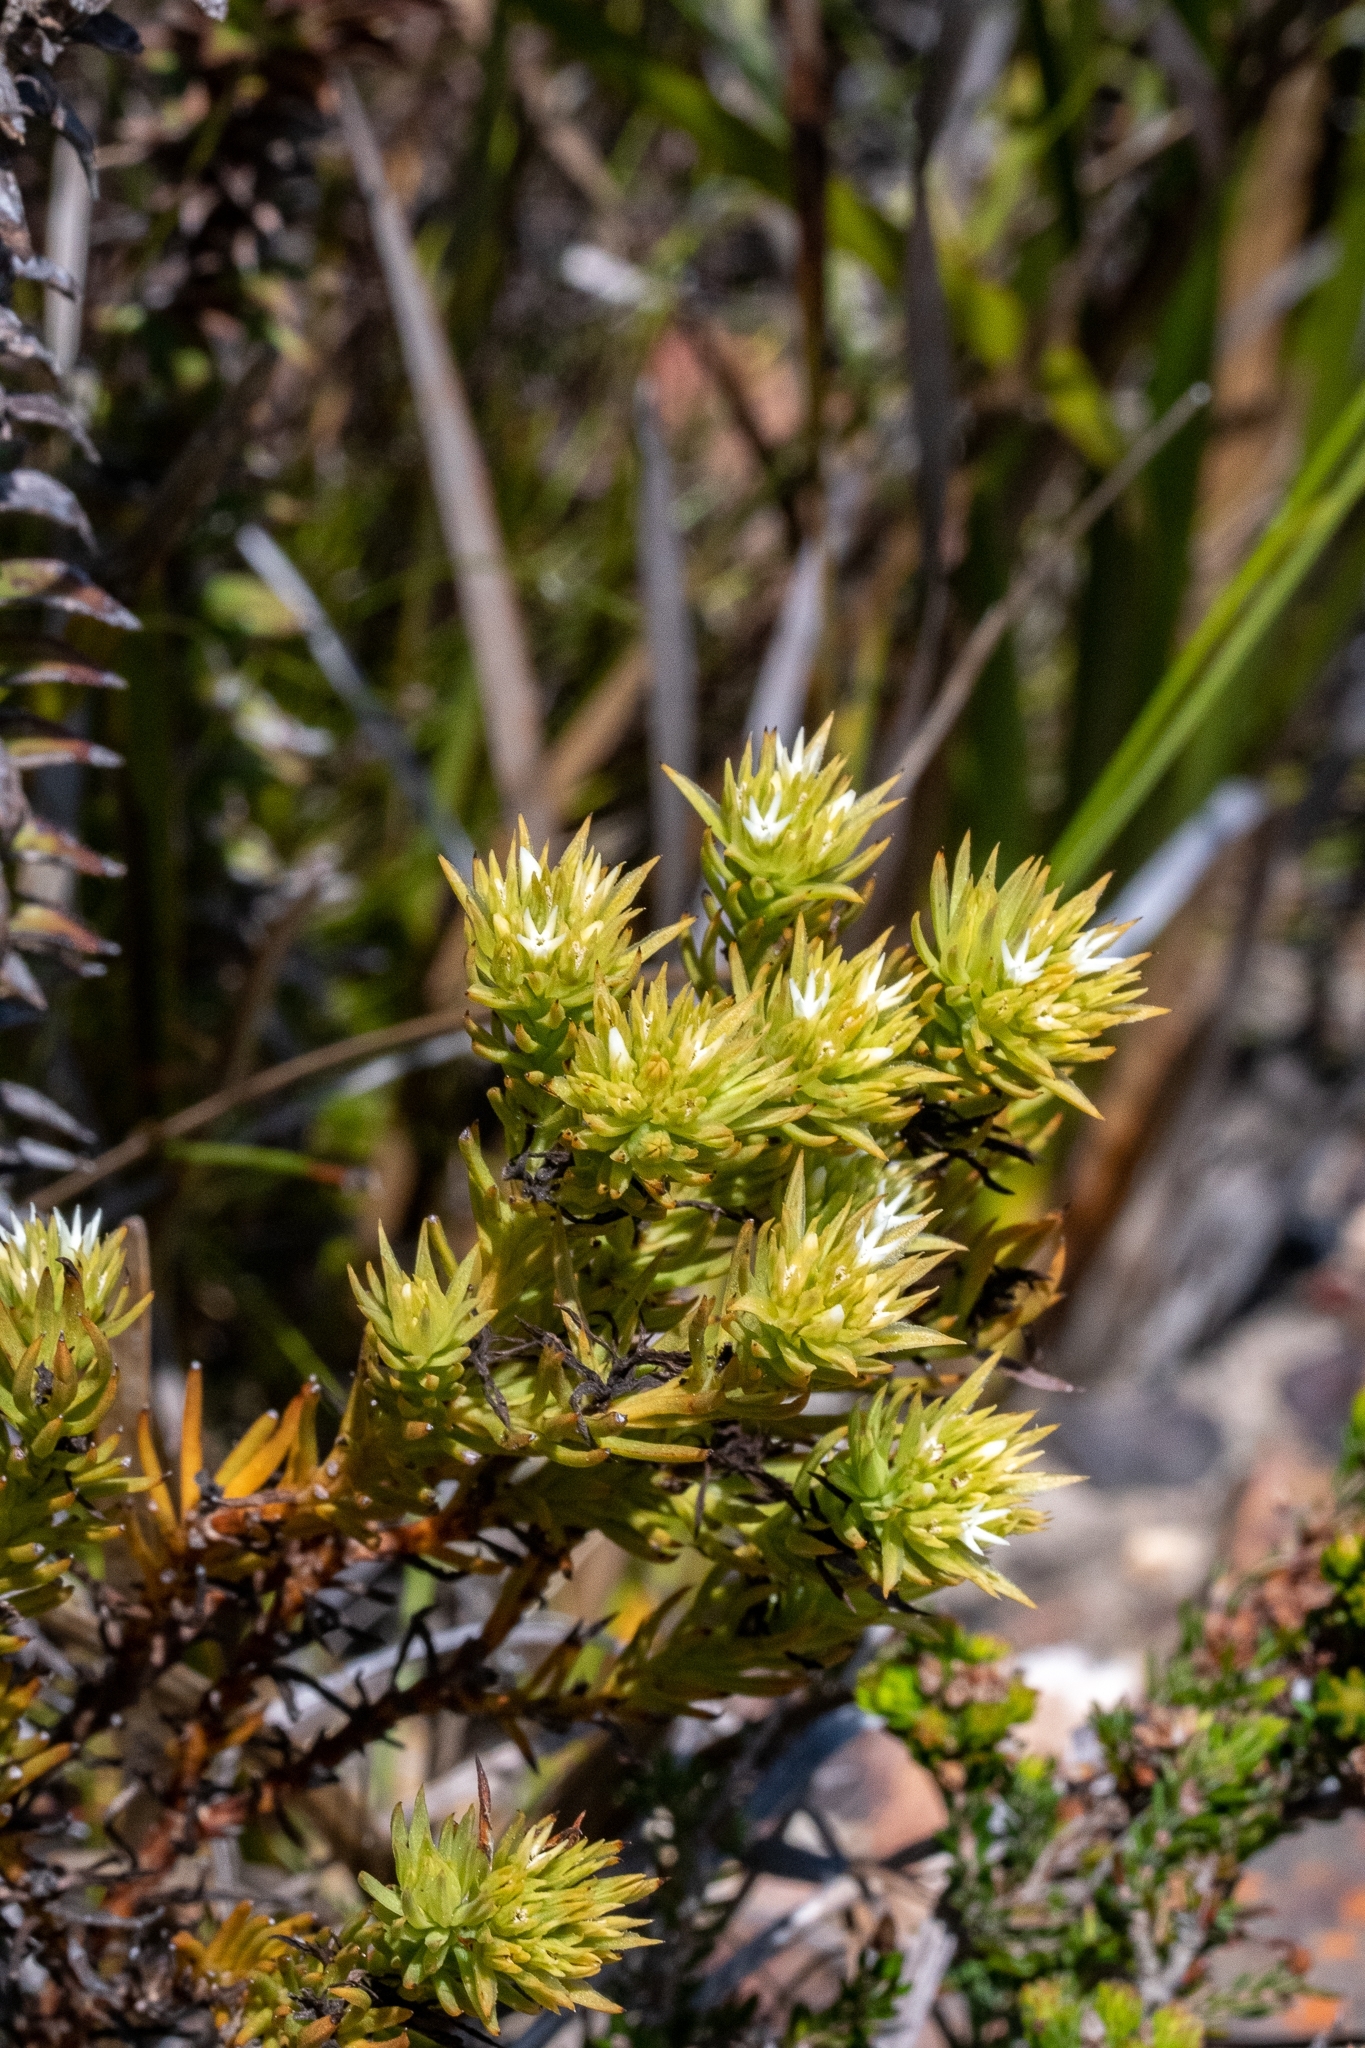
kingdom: Plantae
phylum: Tracheophyta
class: Magnoliopsida
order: Santalales
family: Thesiaceae
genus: Thesium
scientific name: Thesium capitatum
